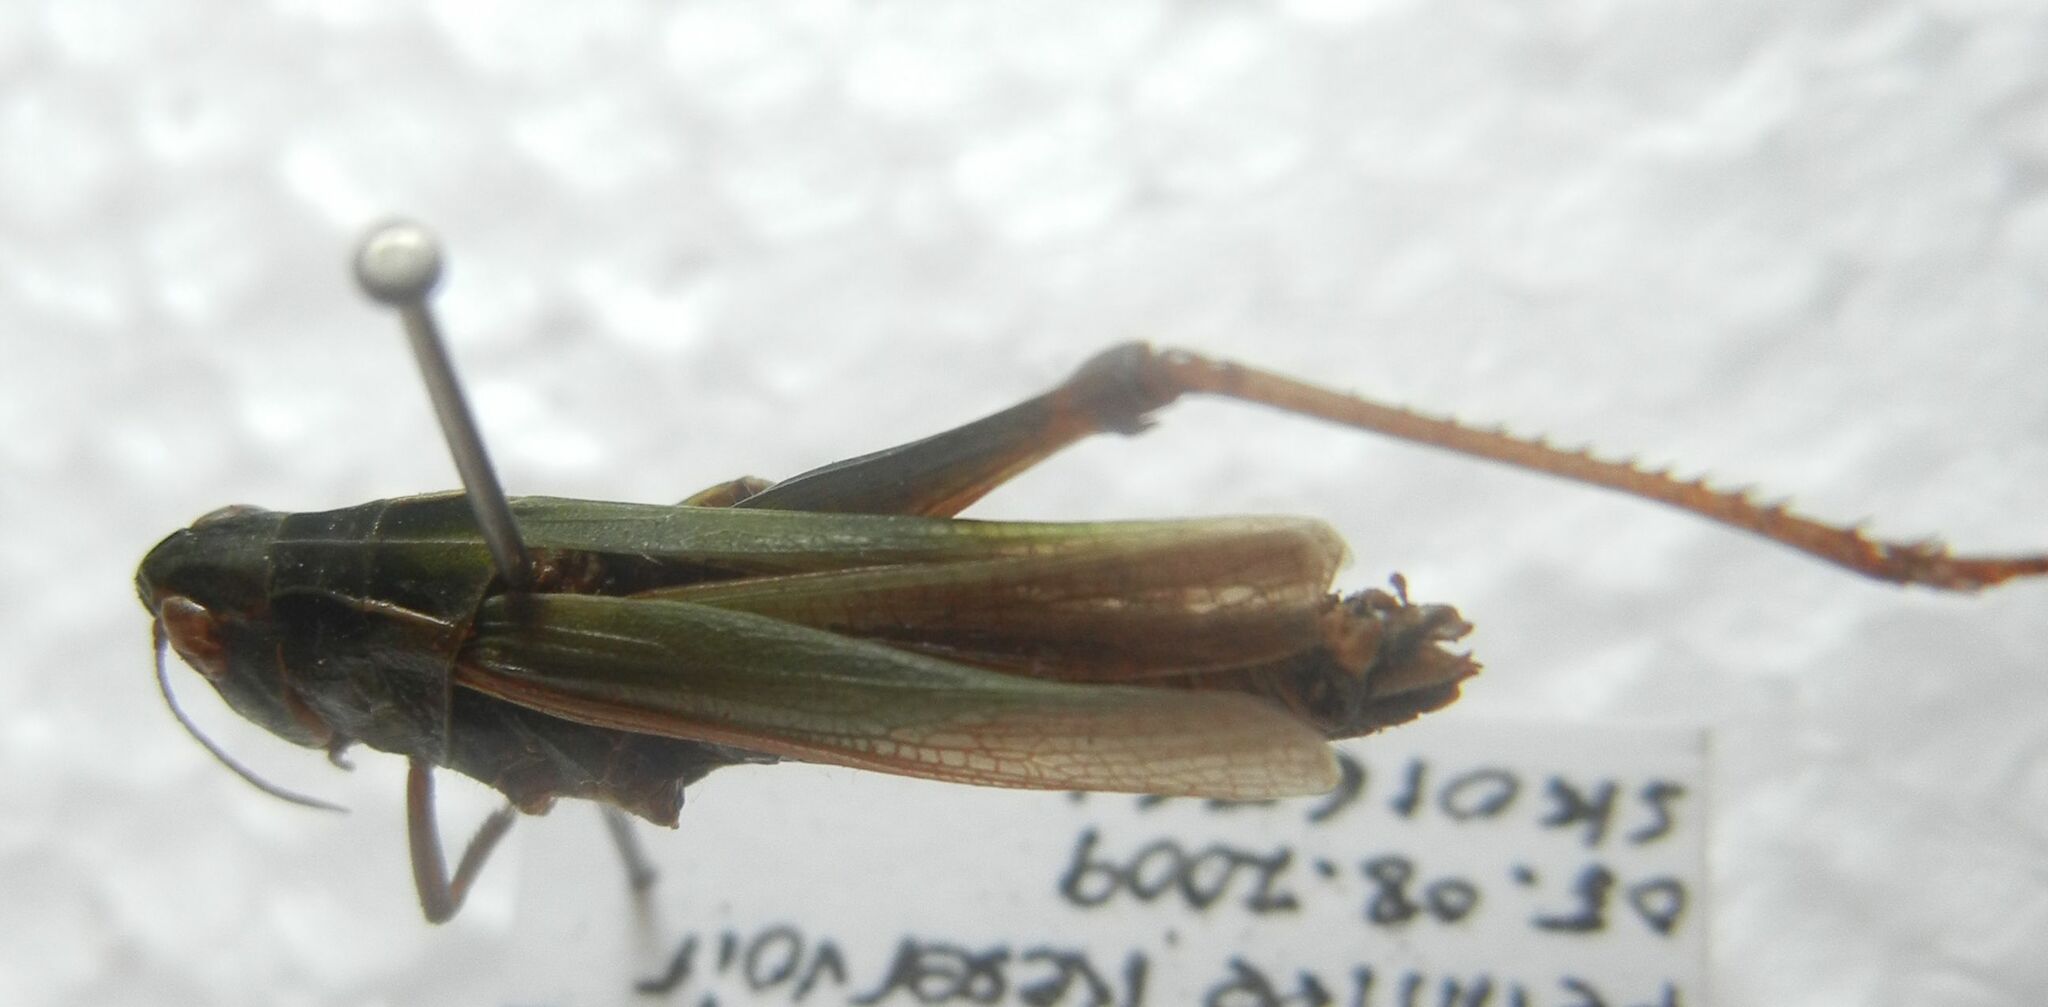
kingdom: Animalia
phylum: Arthropoda
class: Insecta
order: Orthoptera
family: Acrididae
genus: Omocestus
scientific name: Omocestus viridulus
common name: Common green grasshopper
